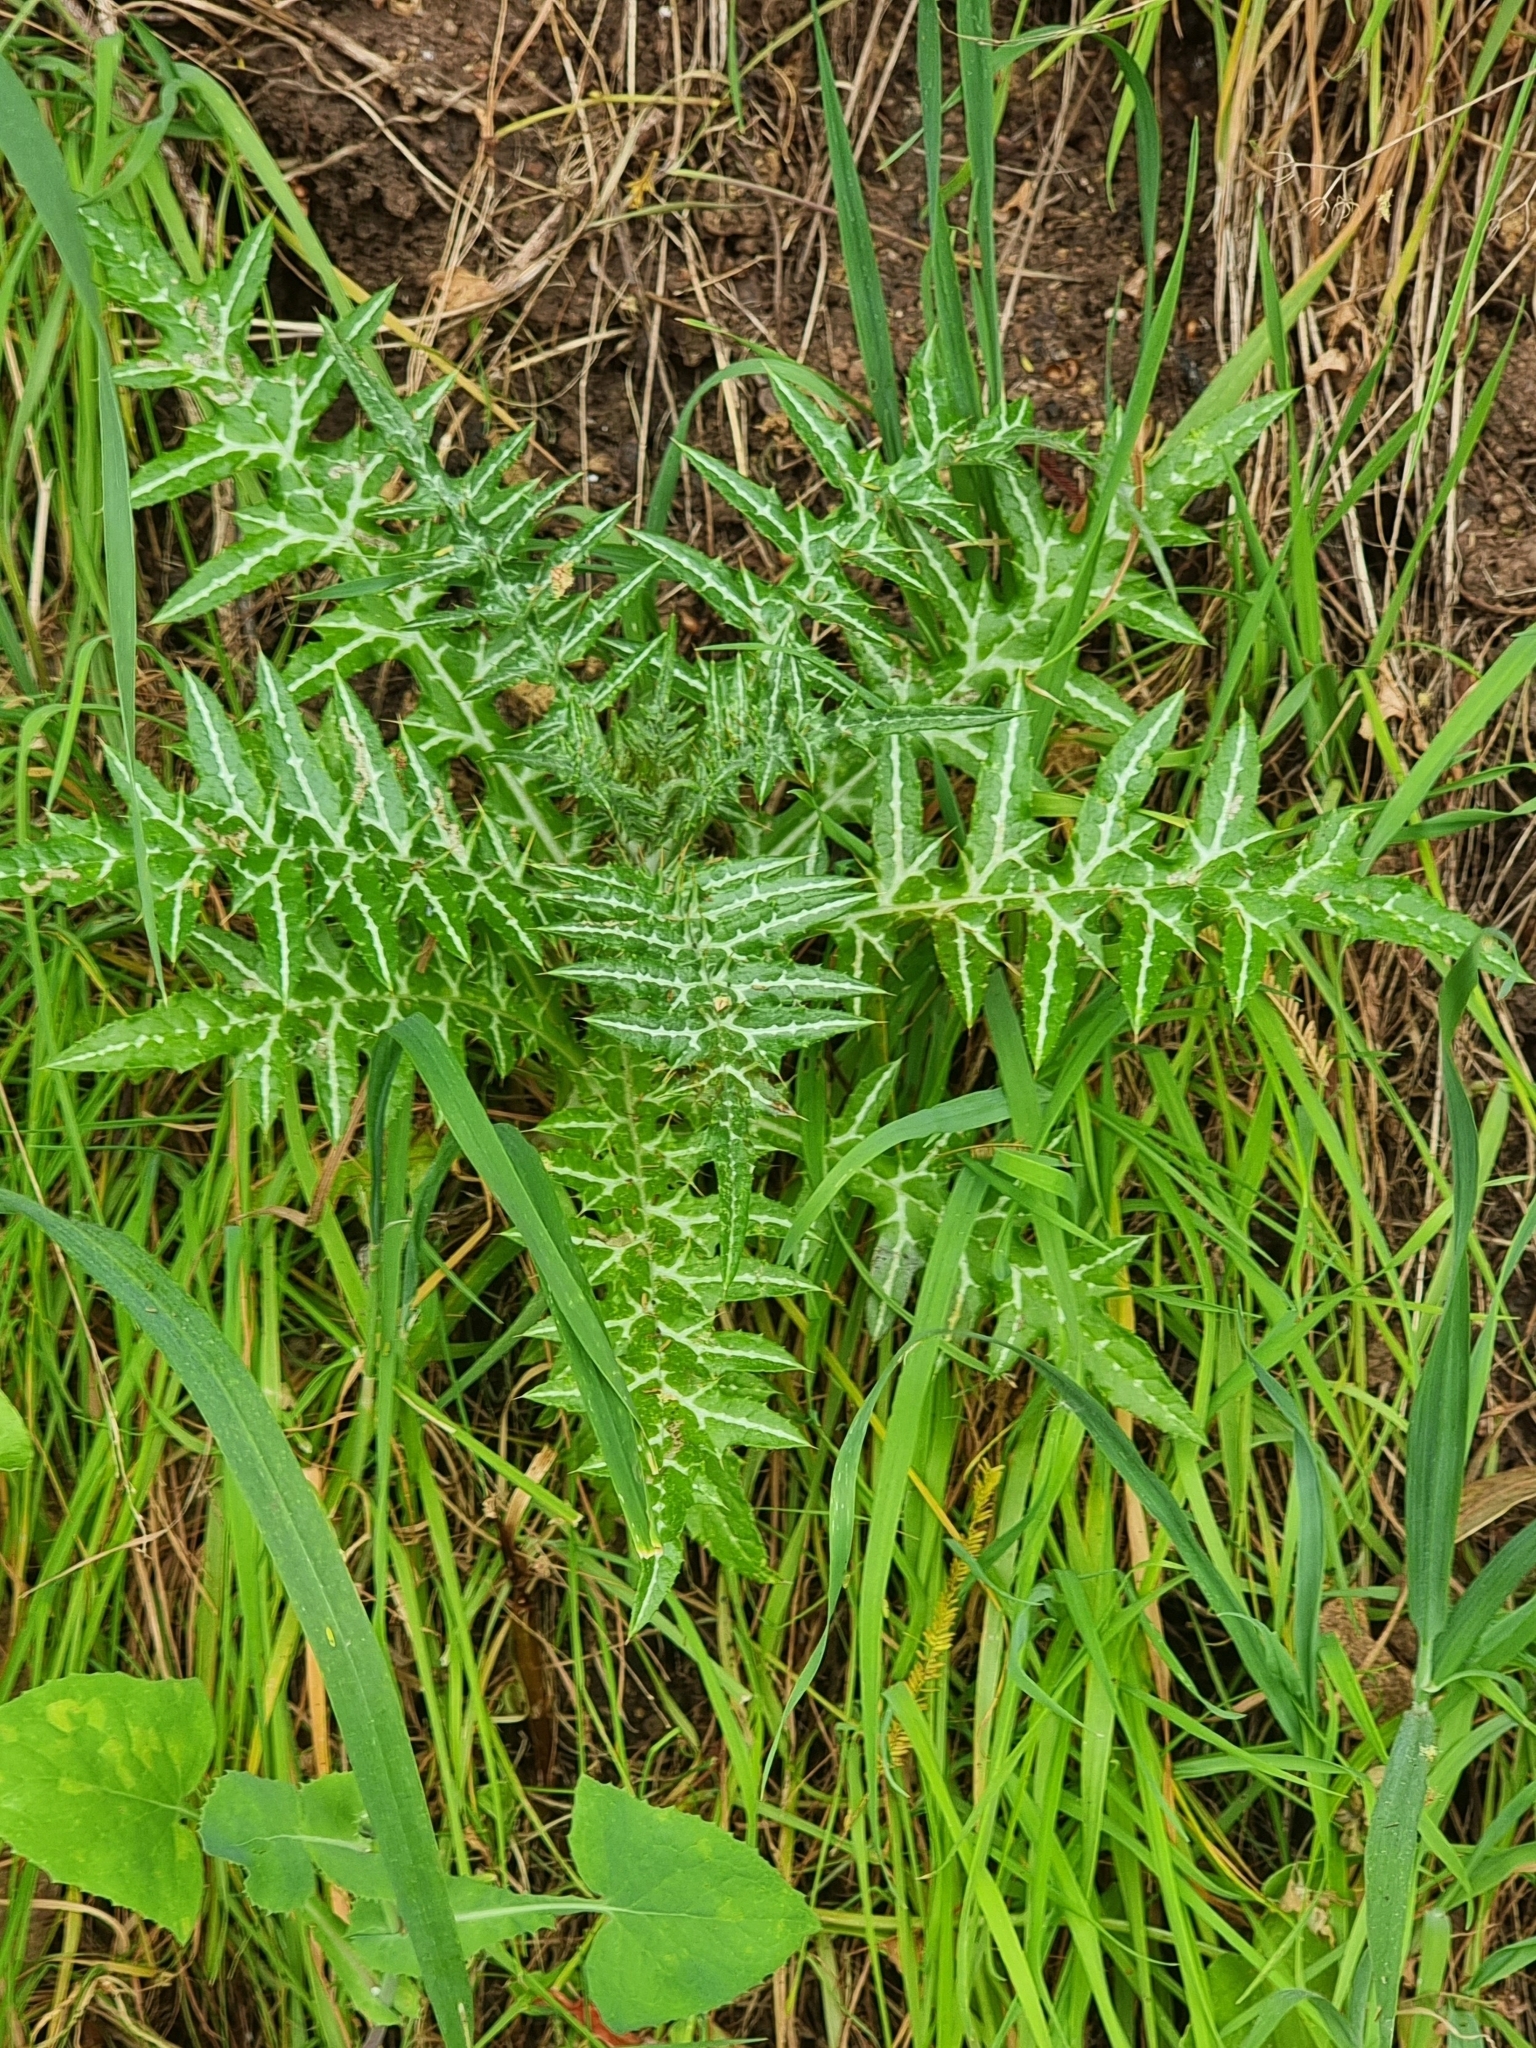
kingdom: Plantae
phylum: Tracheophyta
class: Magnoliopsida
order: Asterales
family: Asteraceae
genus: Galactites
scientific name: Galactites tomentosa
